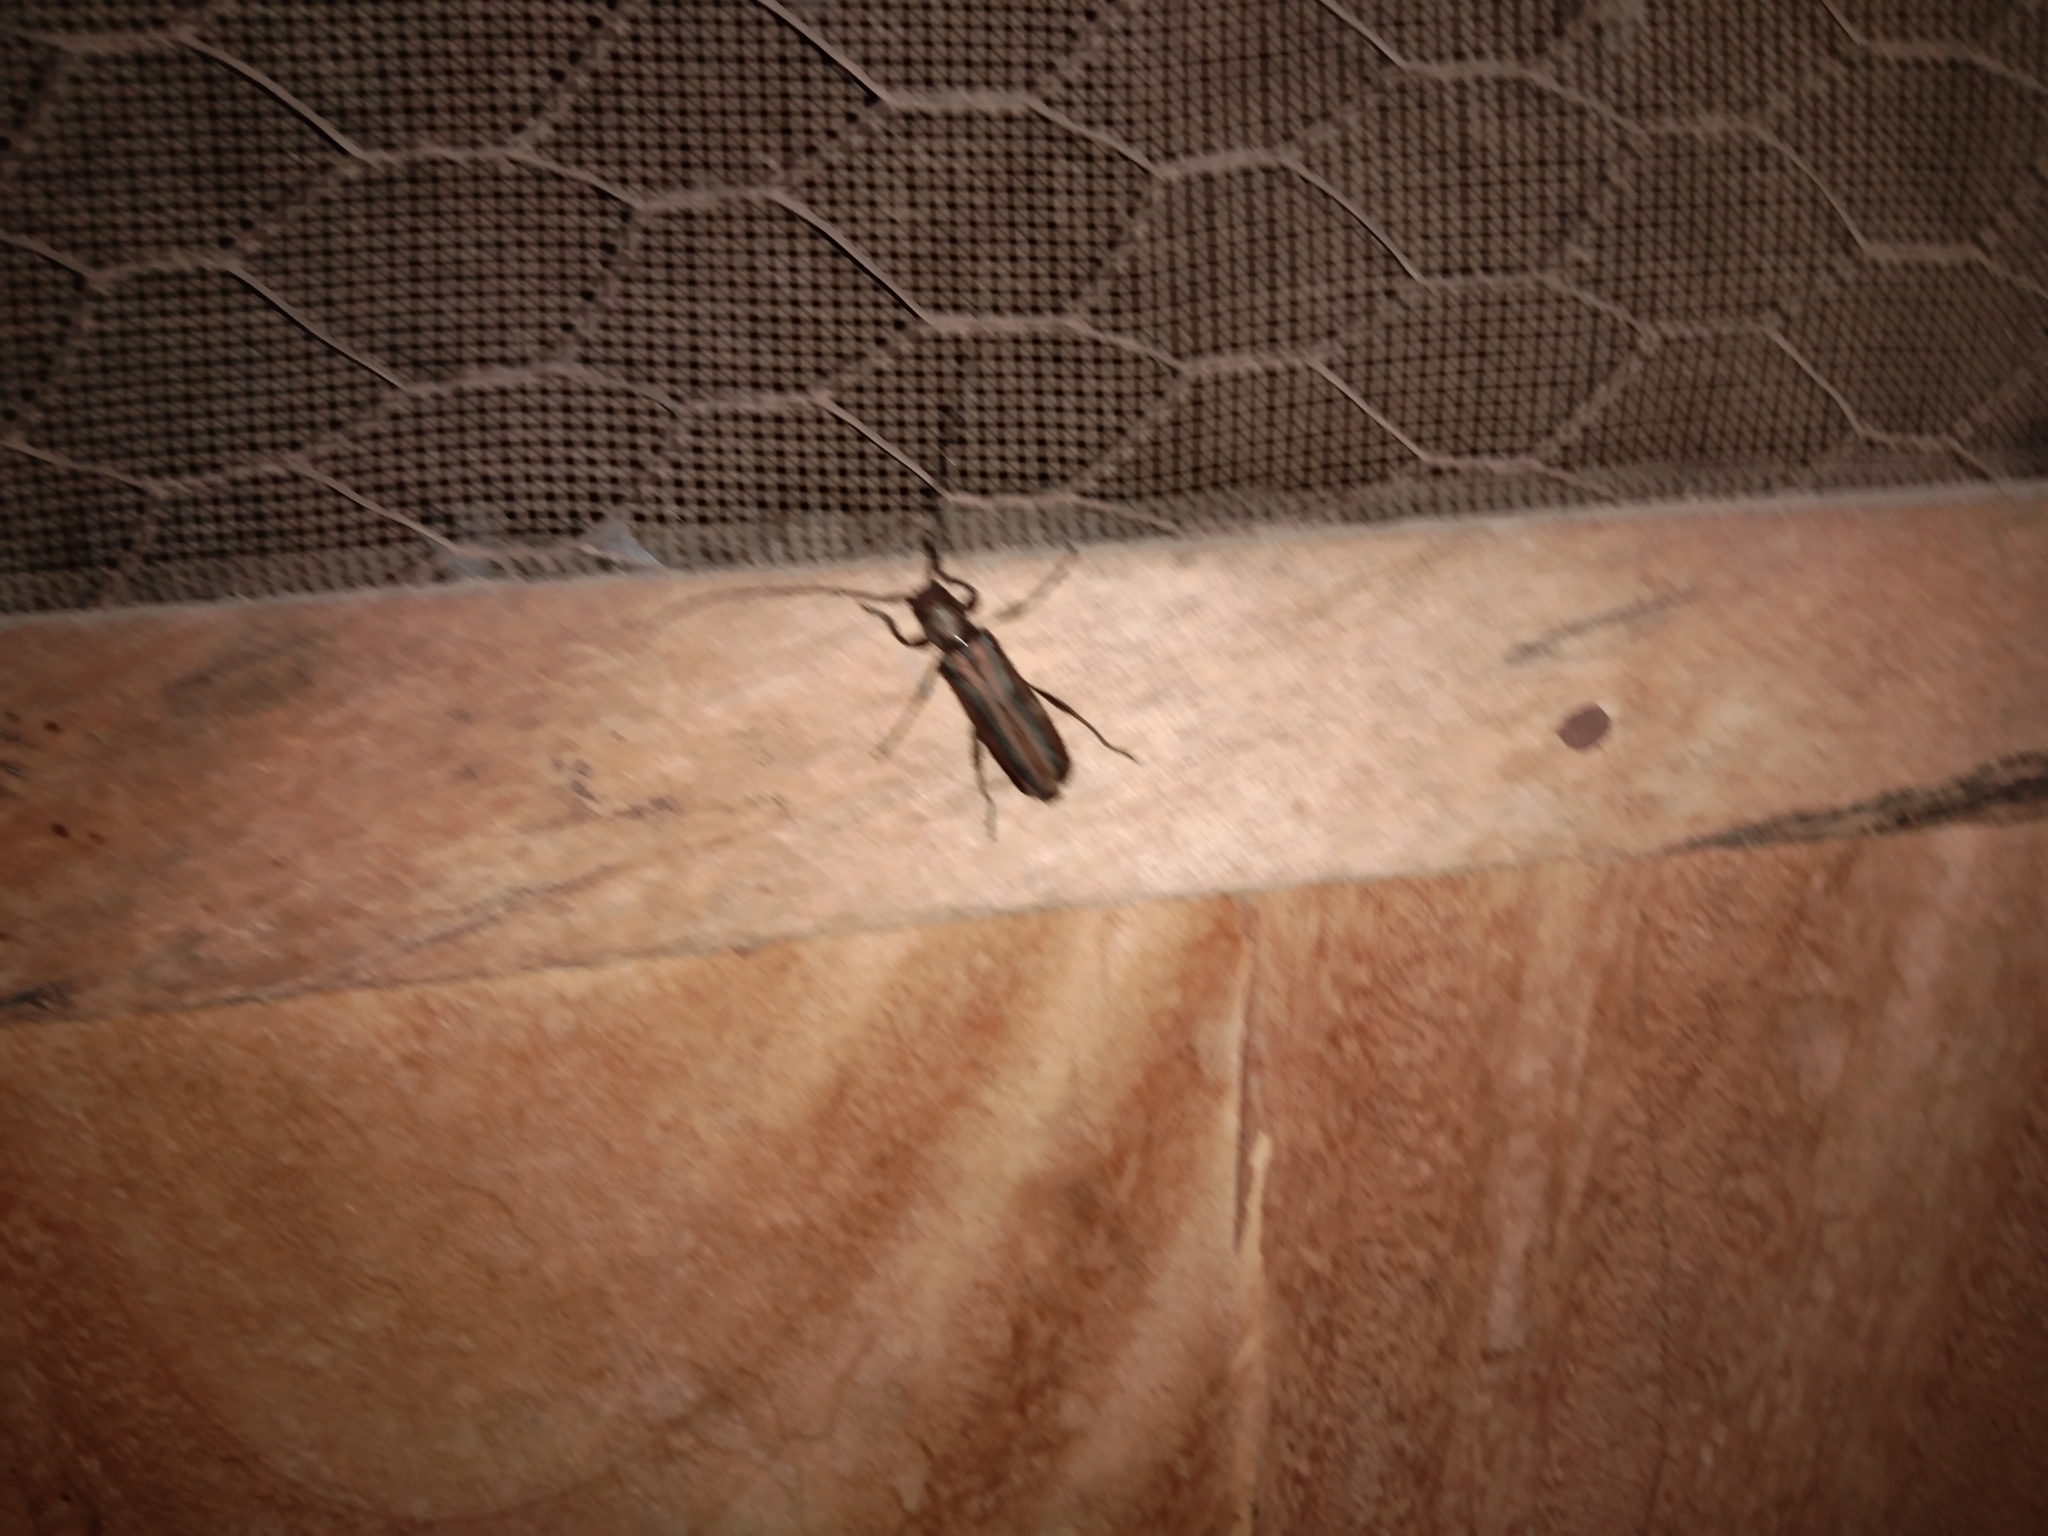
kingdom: Animalia
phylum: Arthropoda
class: Insecta
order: Coleoptera
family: Cerambycidae
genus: Xystrocera
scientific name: Xystrocera vittata
